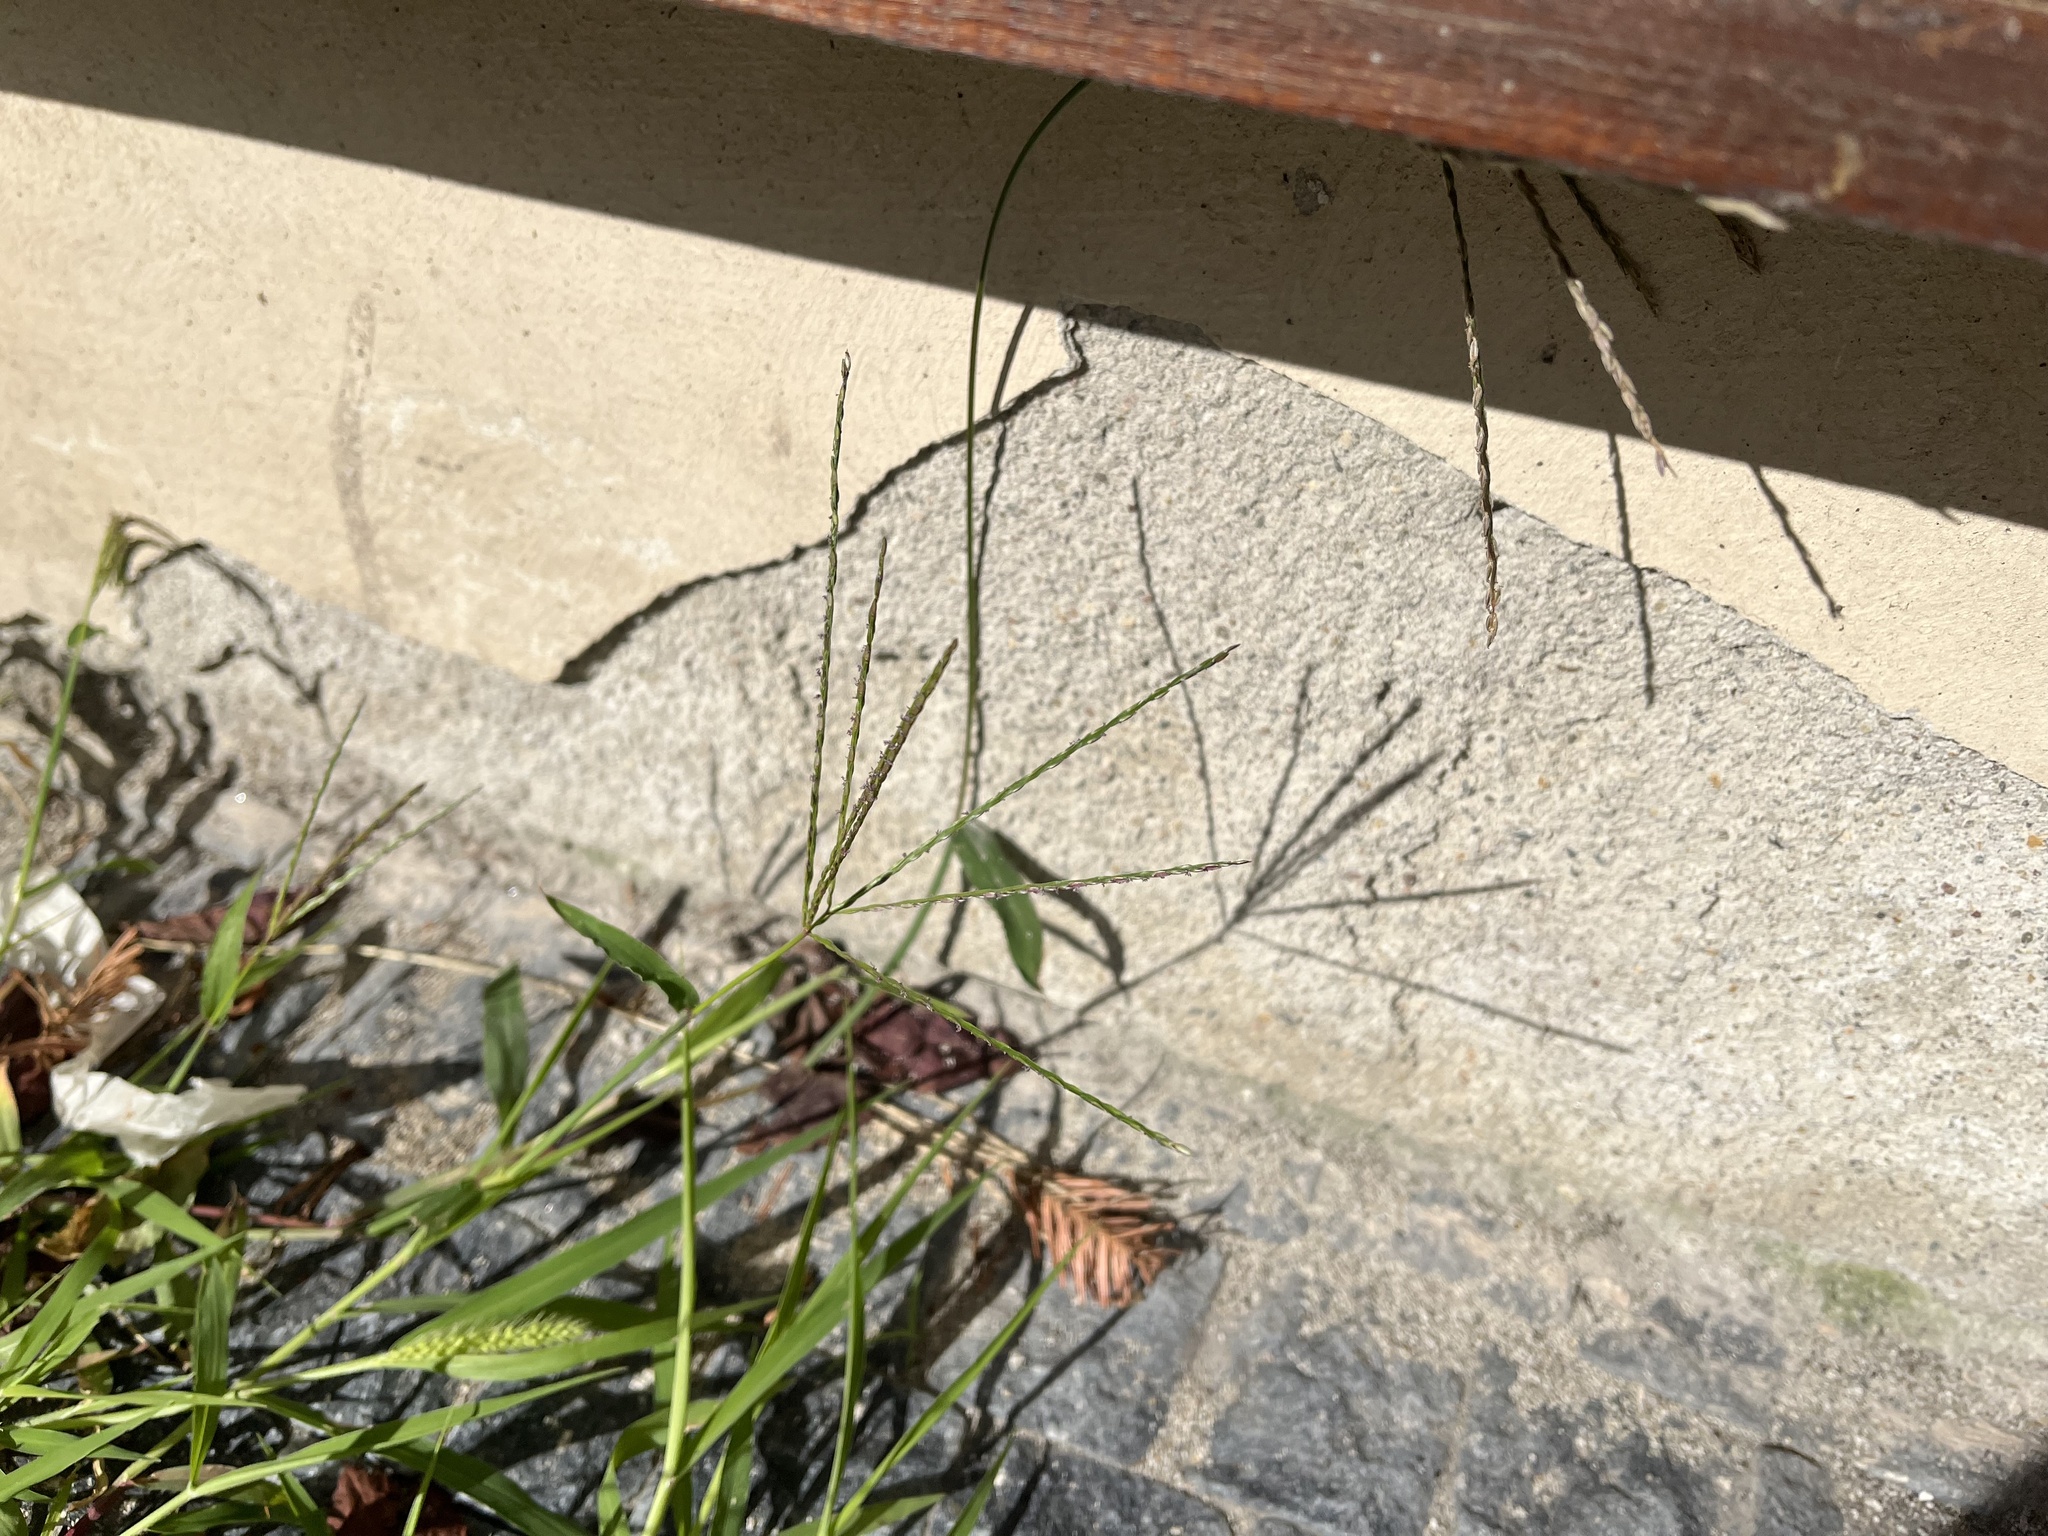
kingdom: Plantae
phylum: Tracheophyta
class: Liliopsida
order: Poales
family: Poaceae
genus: Digitaria
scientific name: Digitaria sanguinalis
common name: Hairy crabgrass
